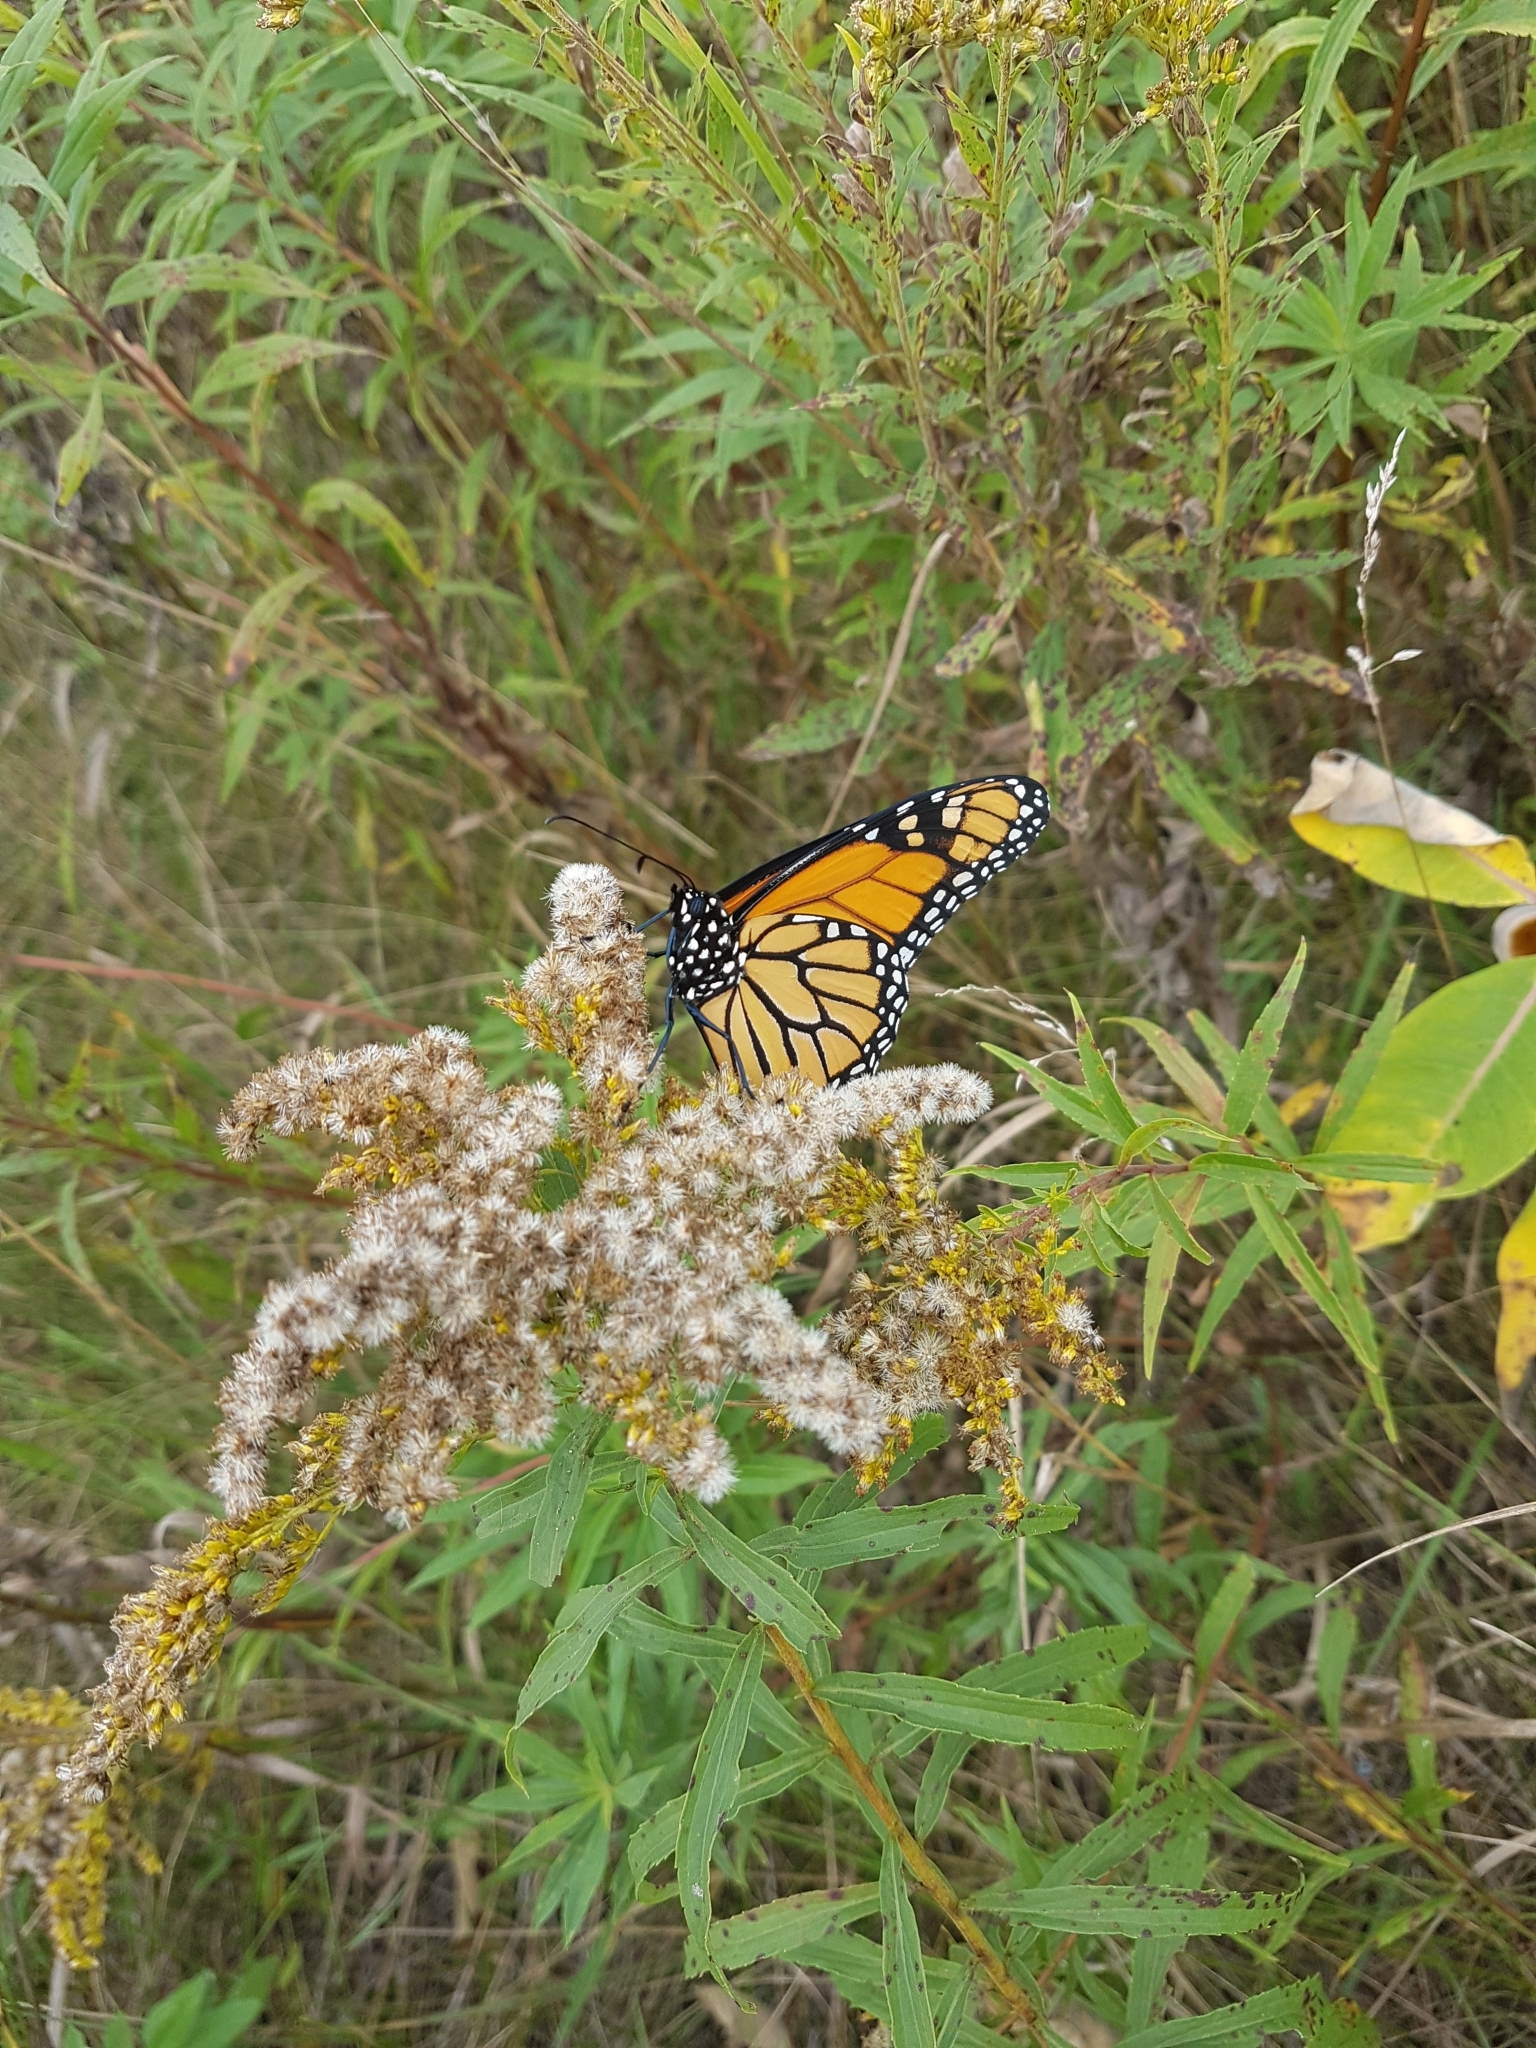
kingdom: Animalia
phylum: Arthropoda
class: Insecta
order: Lepidoptera
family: Nymphalidae
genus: Danaus
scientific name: Danaus plexippus
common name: Monarch
